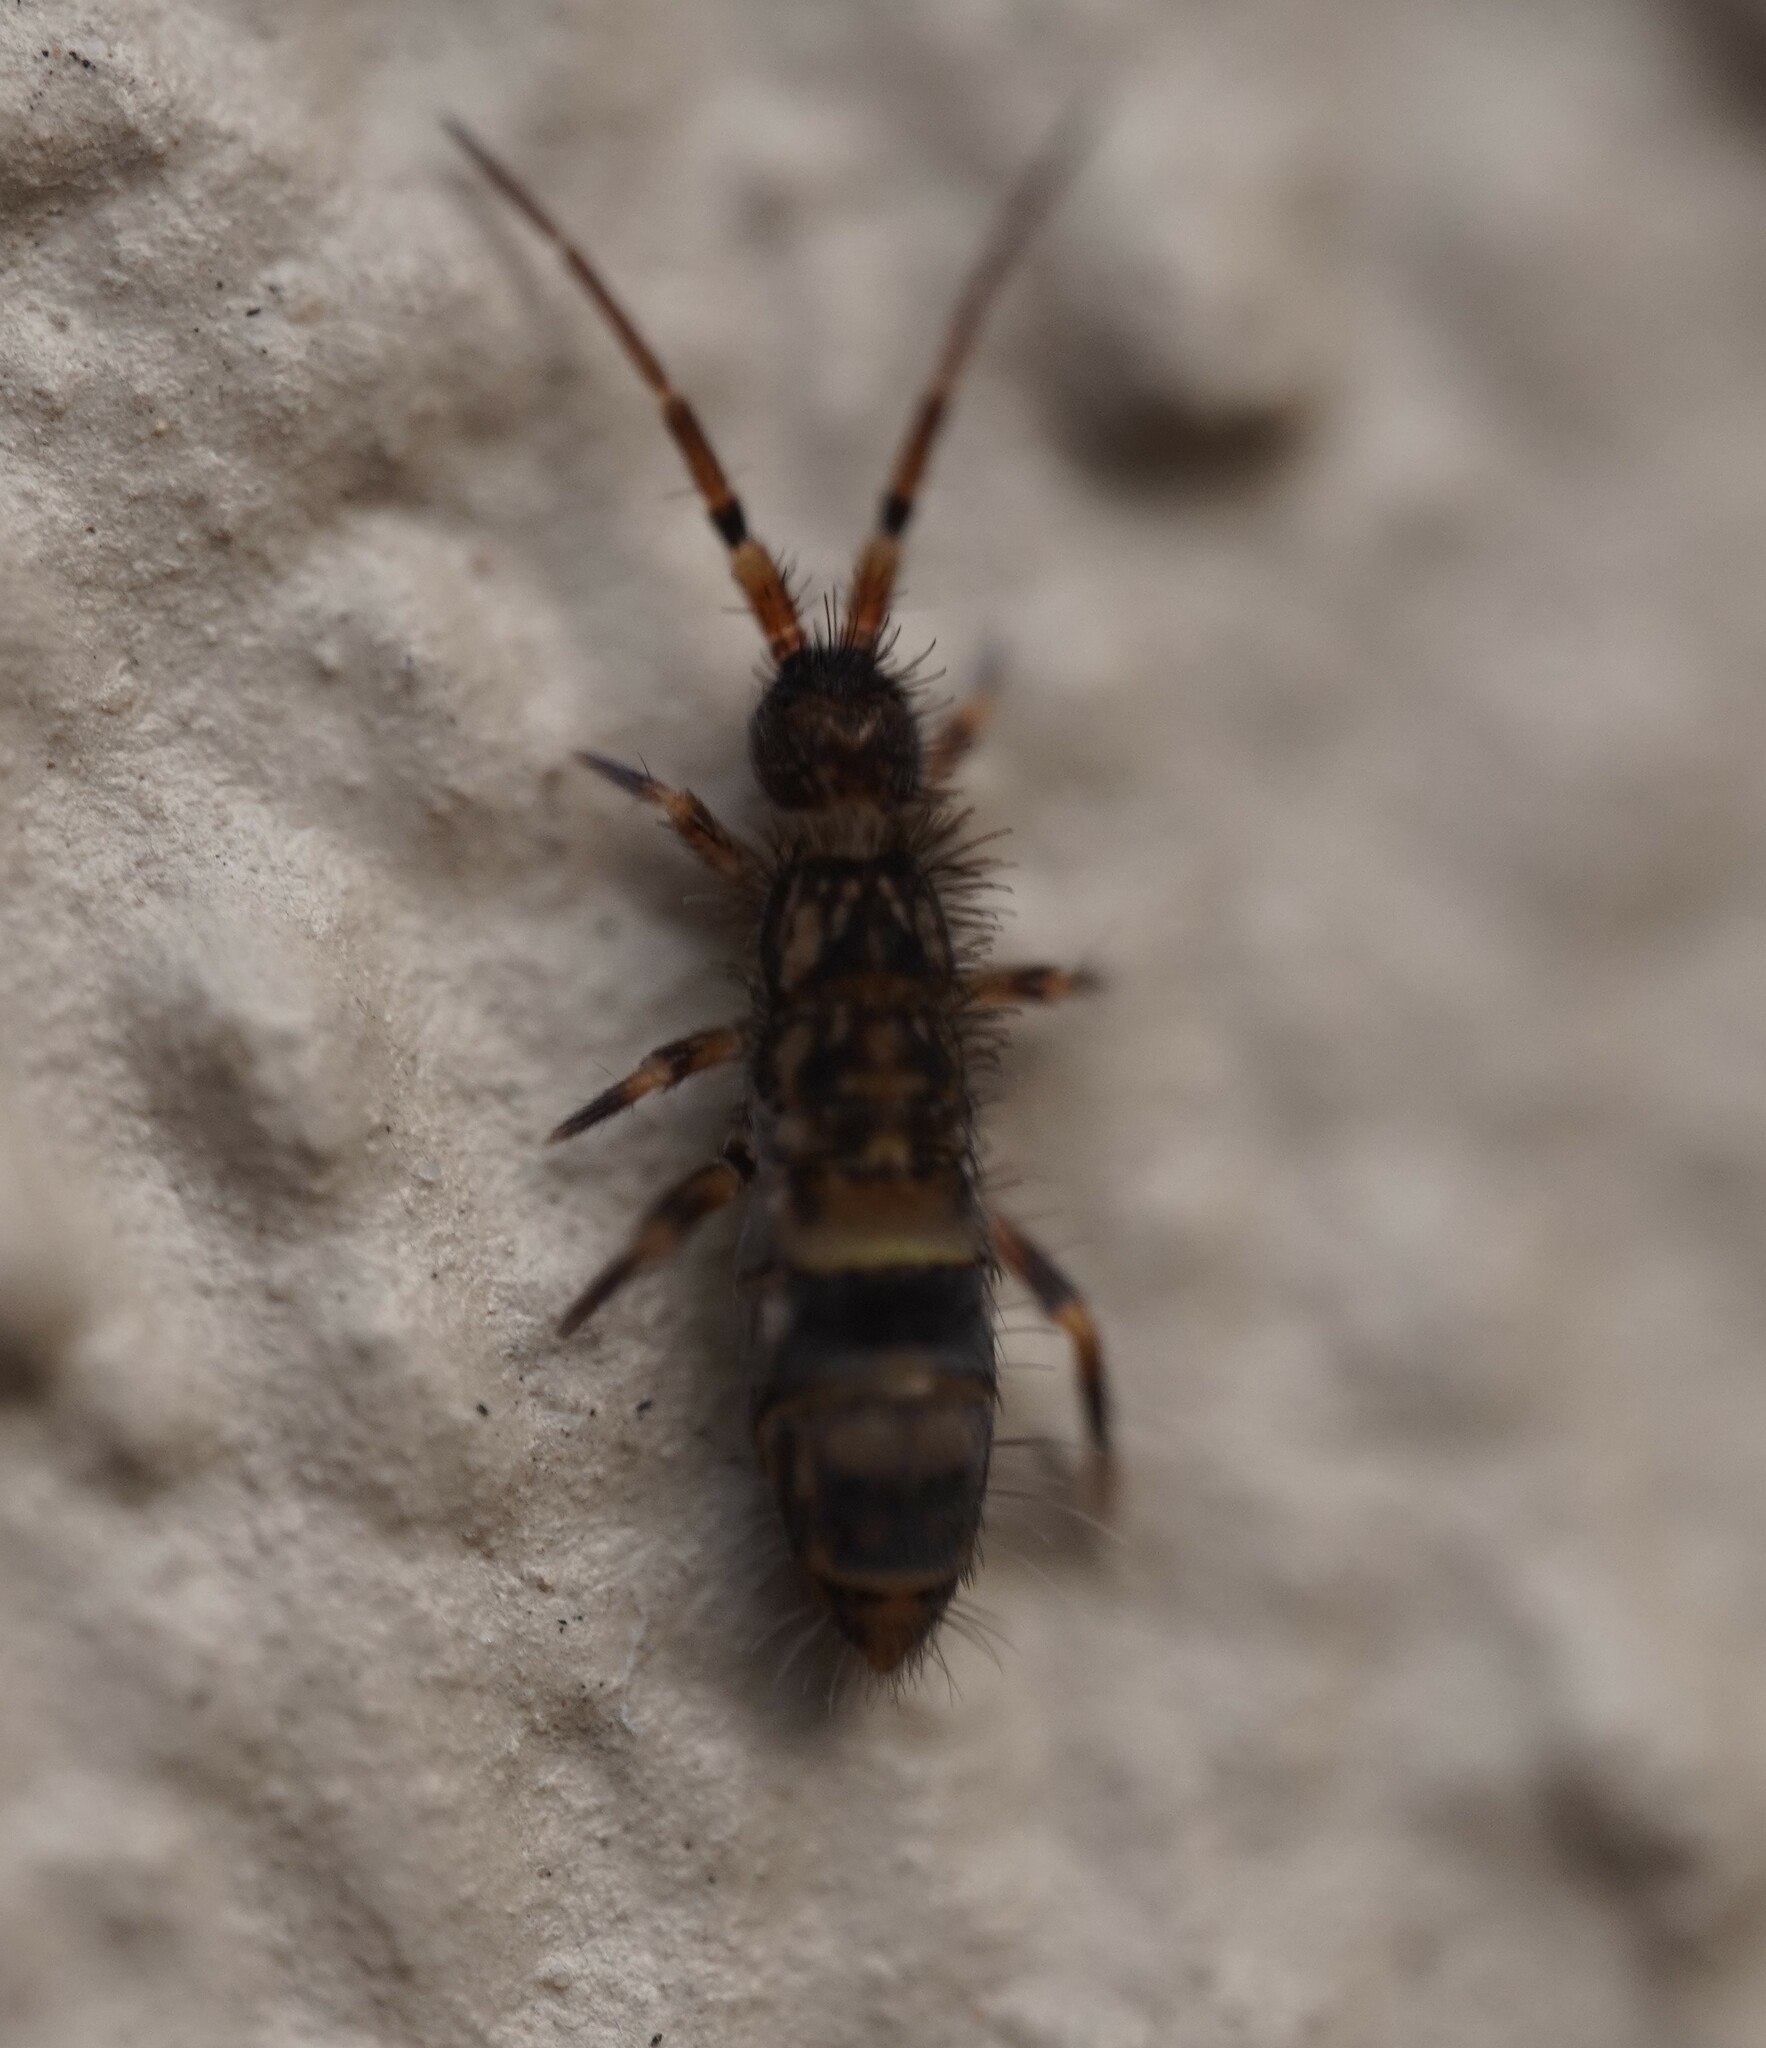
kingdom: Animalia
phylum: Arthropoda
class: Collembola
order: Entomobryomorpha
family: Orchesellidae
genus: Orchesella
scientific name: Orchesella cincta
